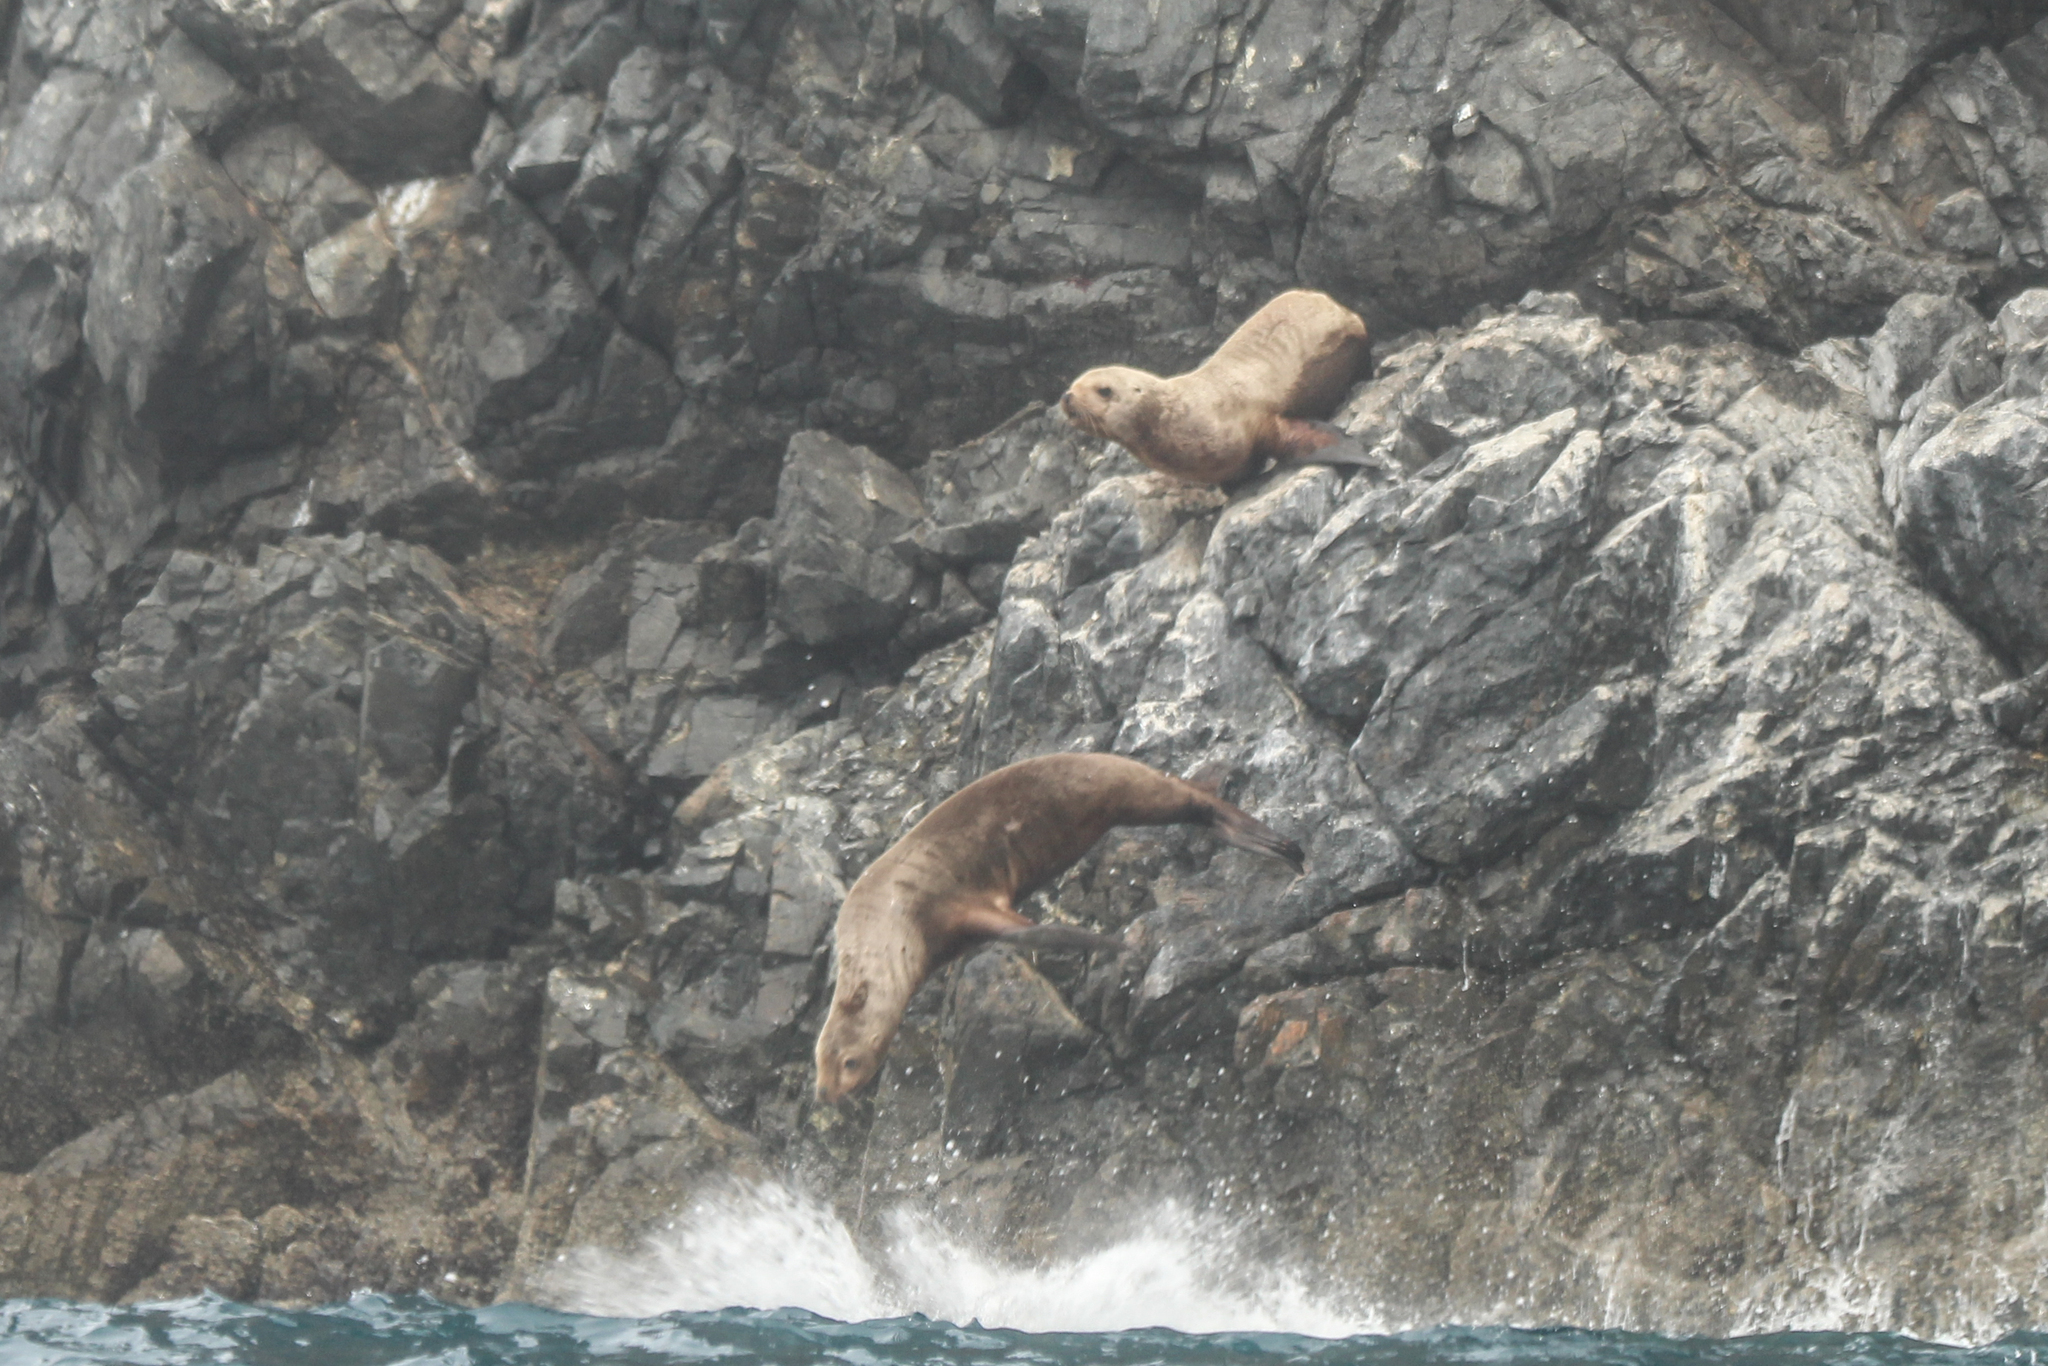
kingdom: Animalia
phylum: Chordata
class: Mammalia
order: Carnivora
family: Otariidae
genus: Eumetopias
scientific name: Eumetopias jubatus
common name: Steller sea lion
